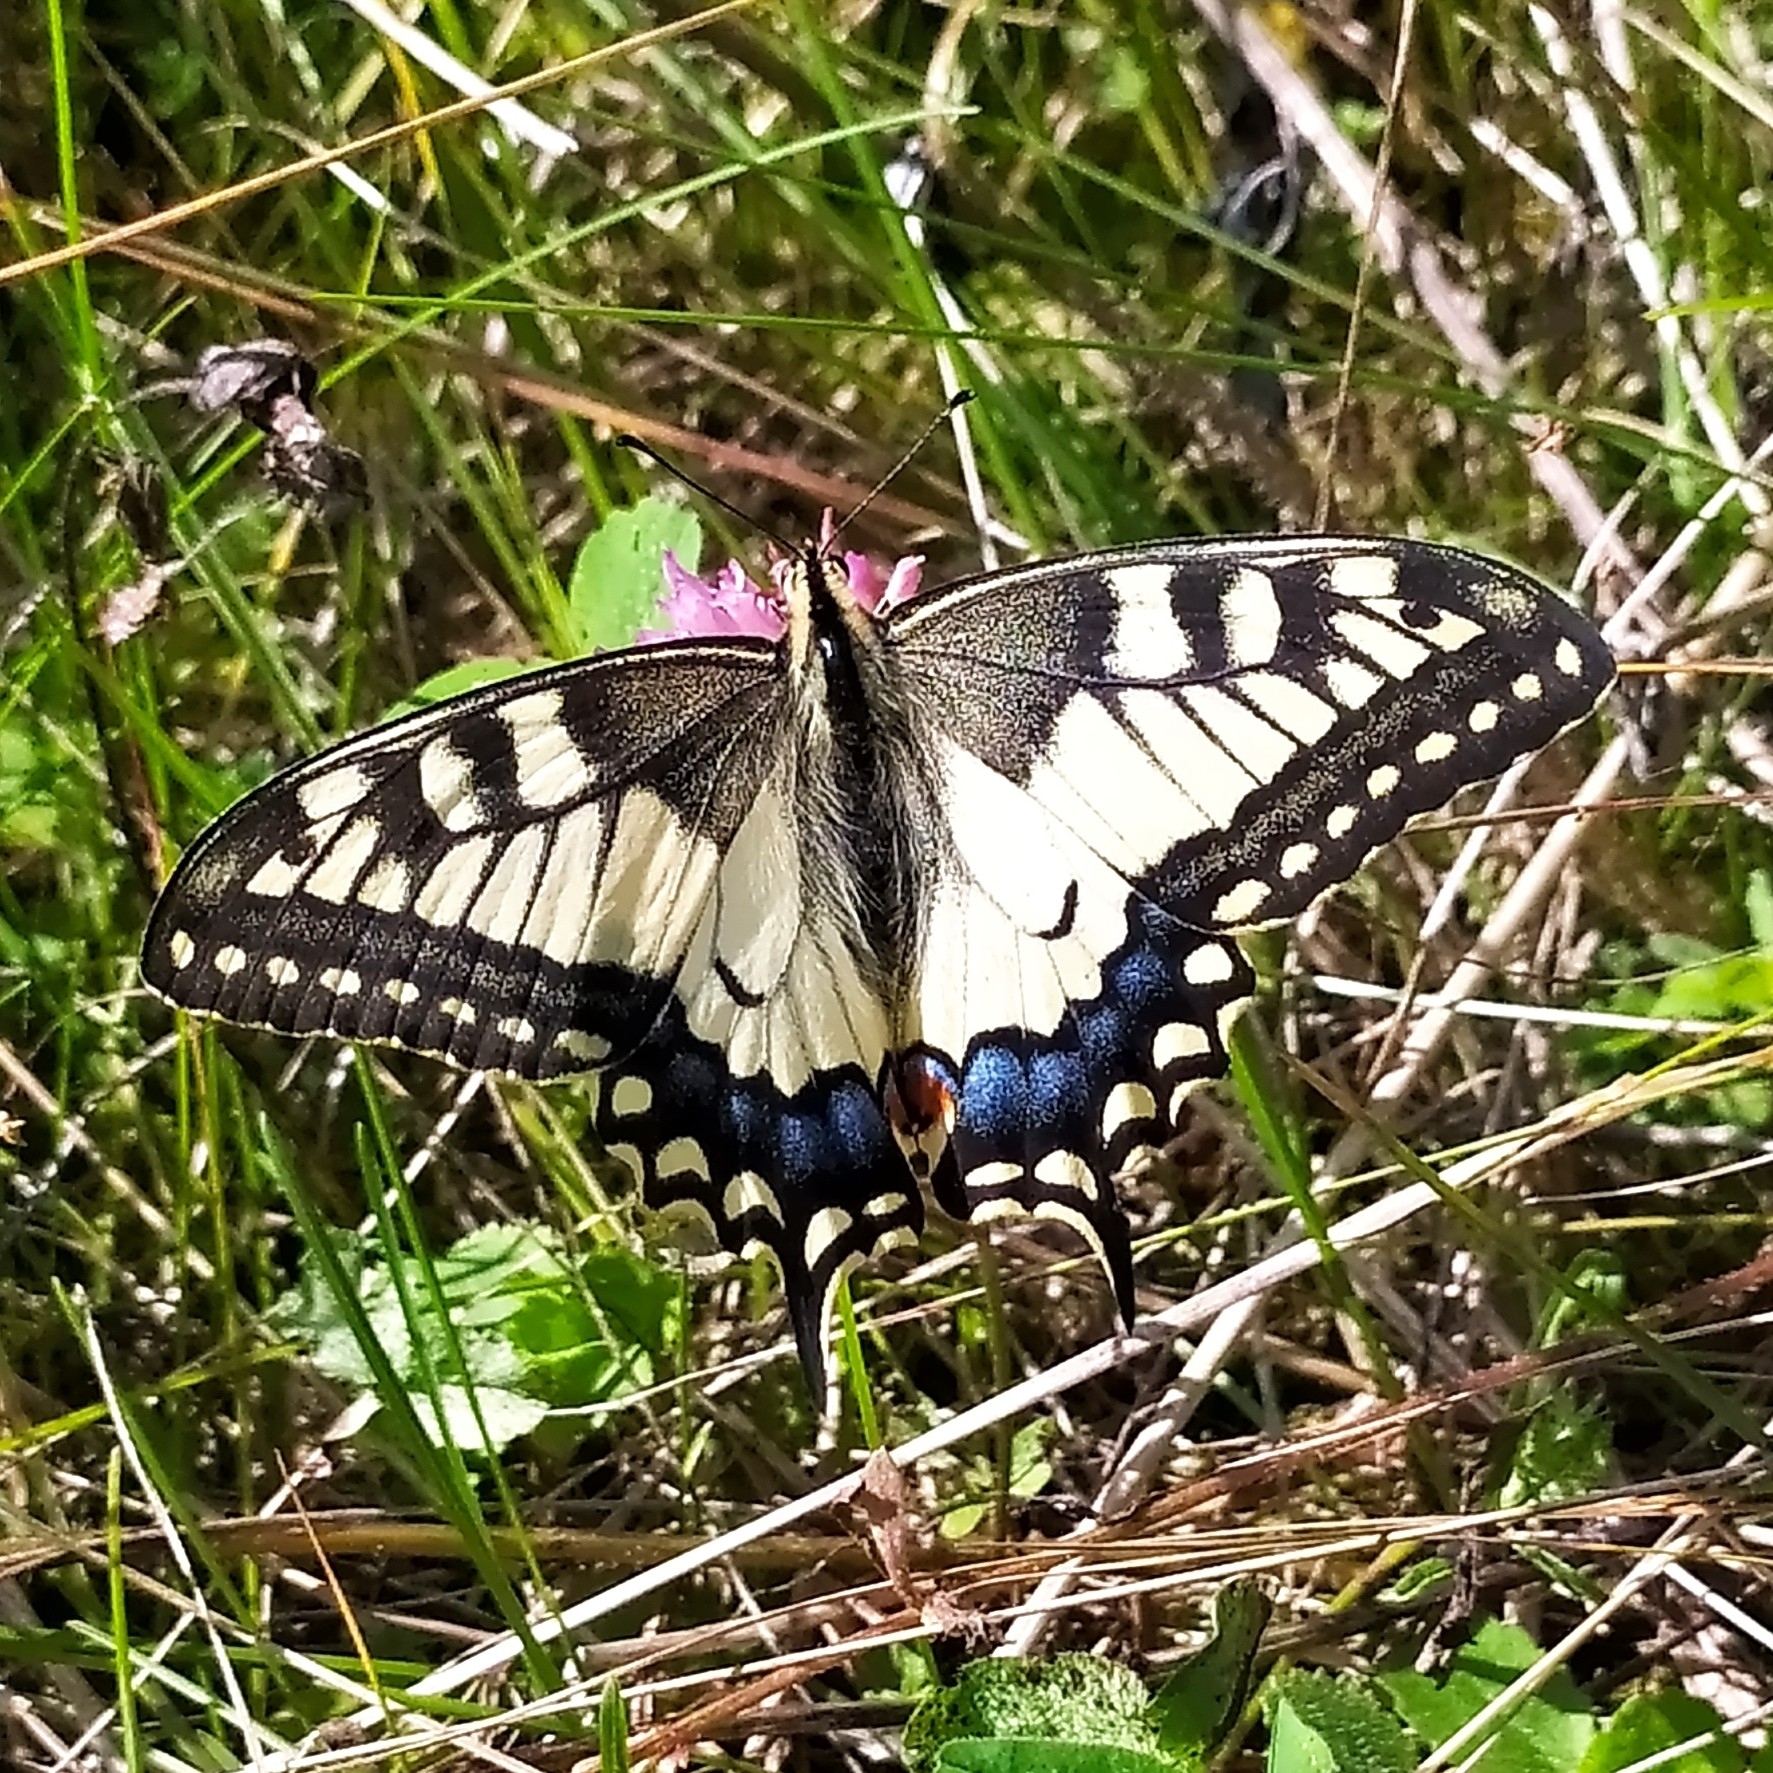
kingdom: Animalia
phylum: Arthropoda
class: Insecta
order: Lepidoptera
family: Papilionidae
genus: Papilio
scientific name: Papilio machaon
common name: Swallowtail
